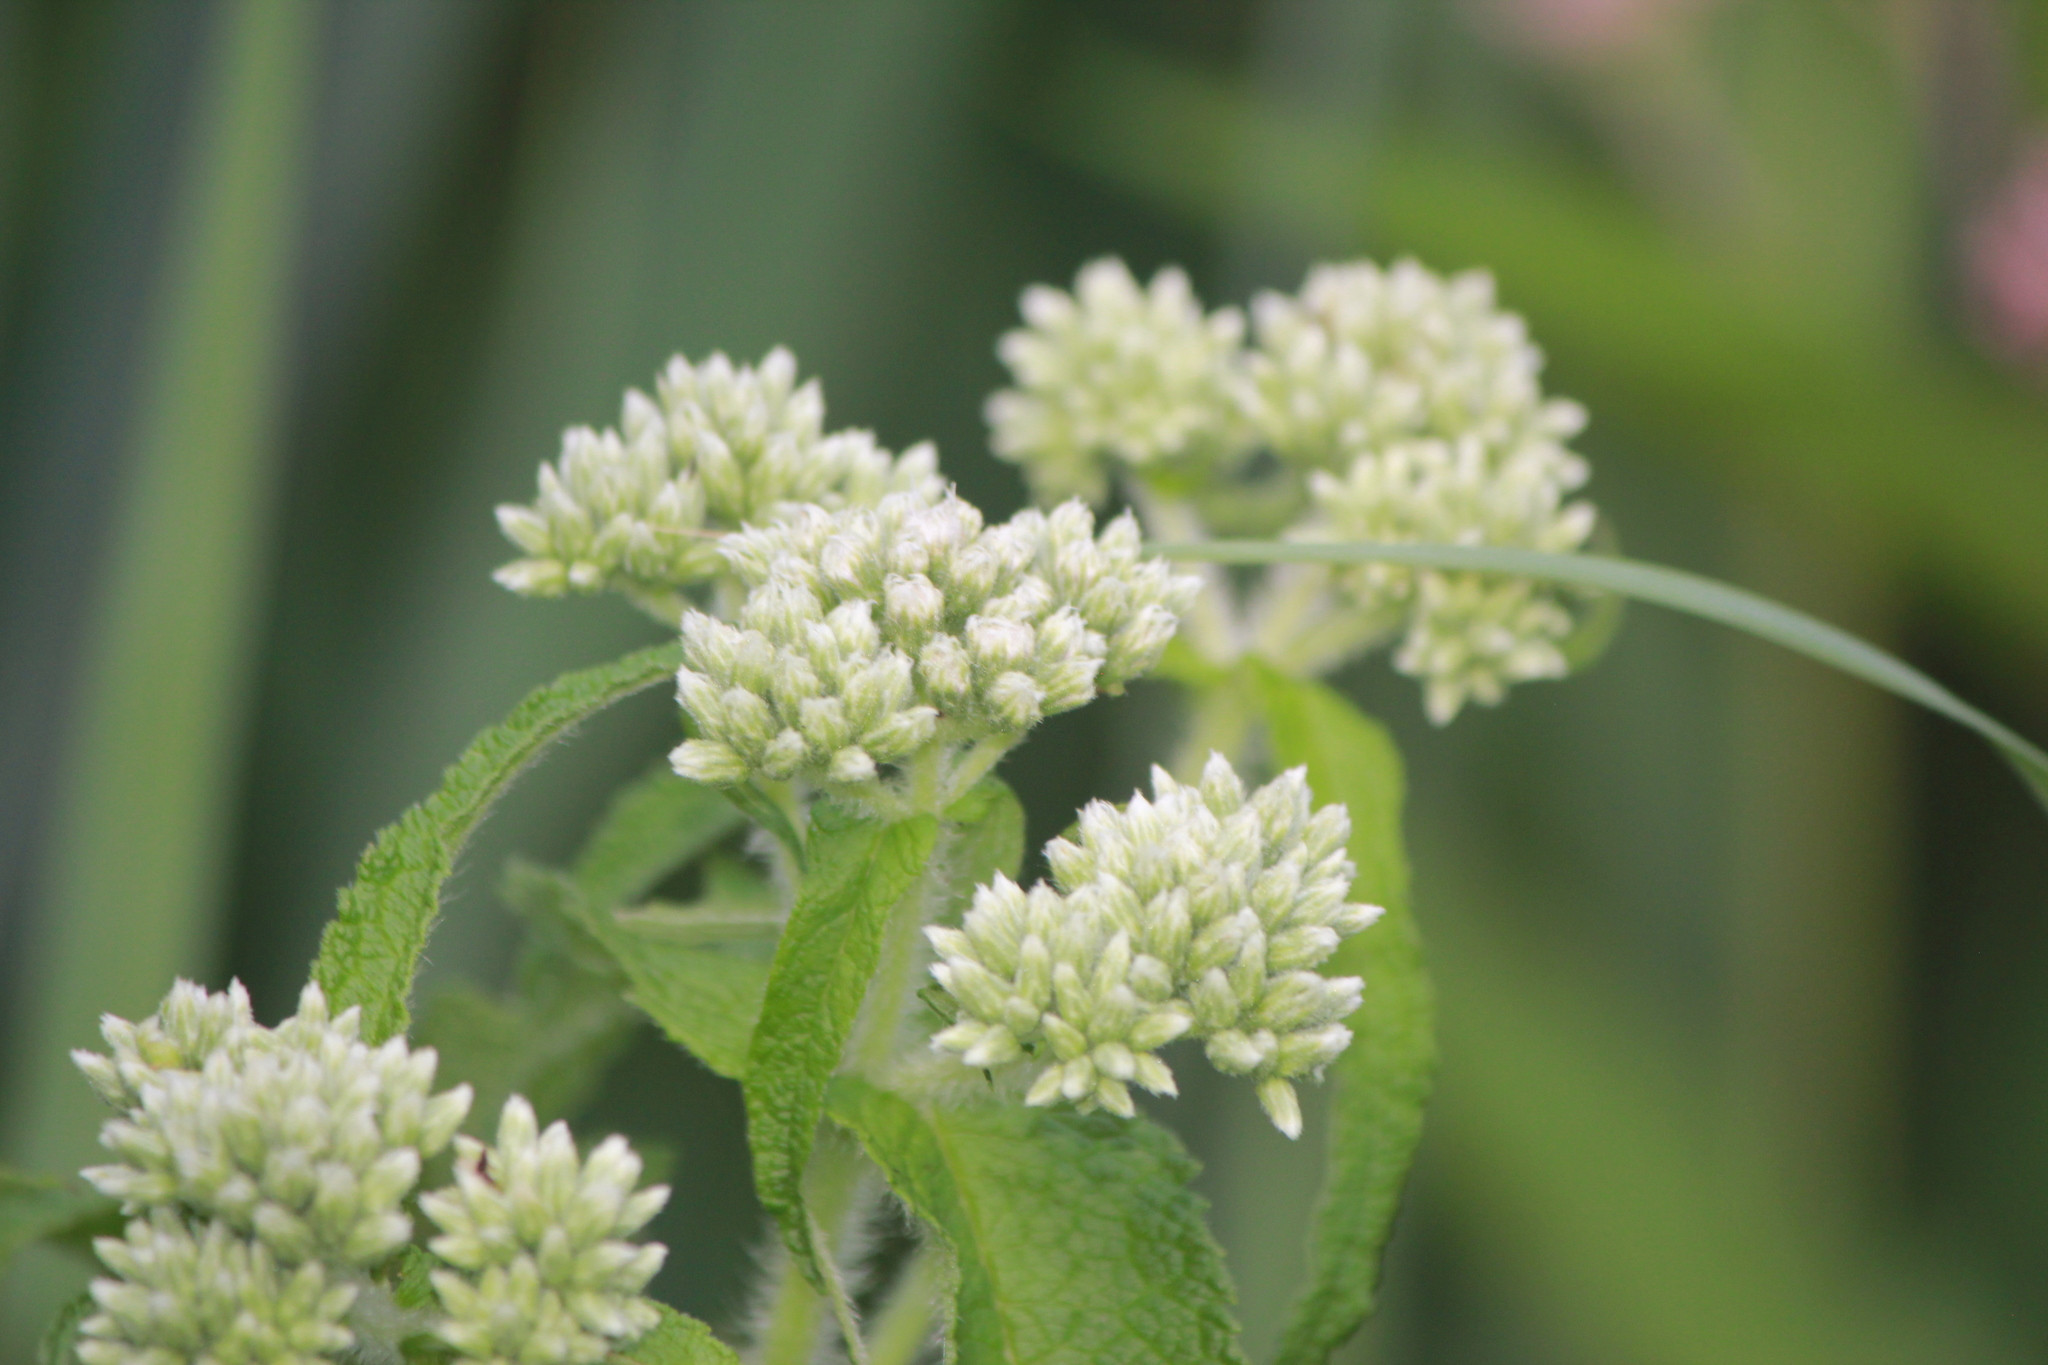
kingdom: Plantae
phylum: Tracheophyta
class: Magnoliopsida
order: Asterales
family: Asteraceae
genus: Eupatorium
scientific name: Eupatorium perfoliatum
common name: Boneset
